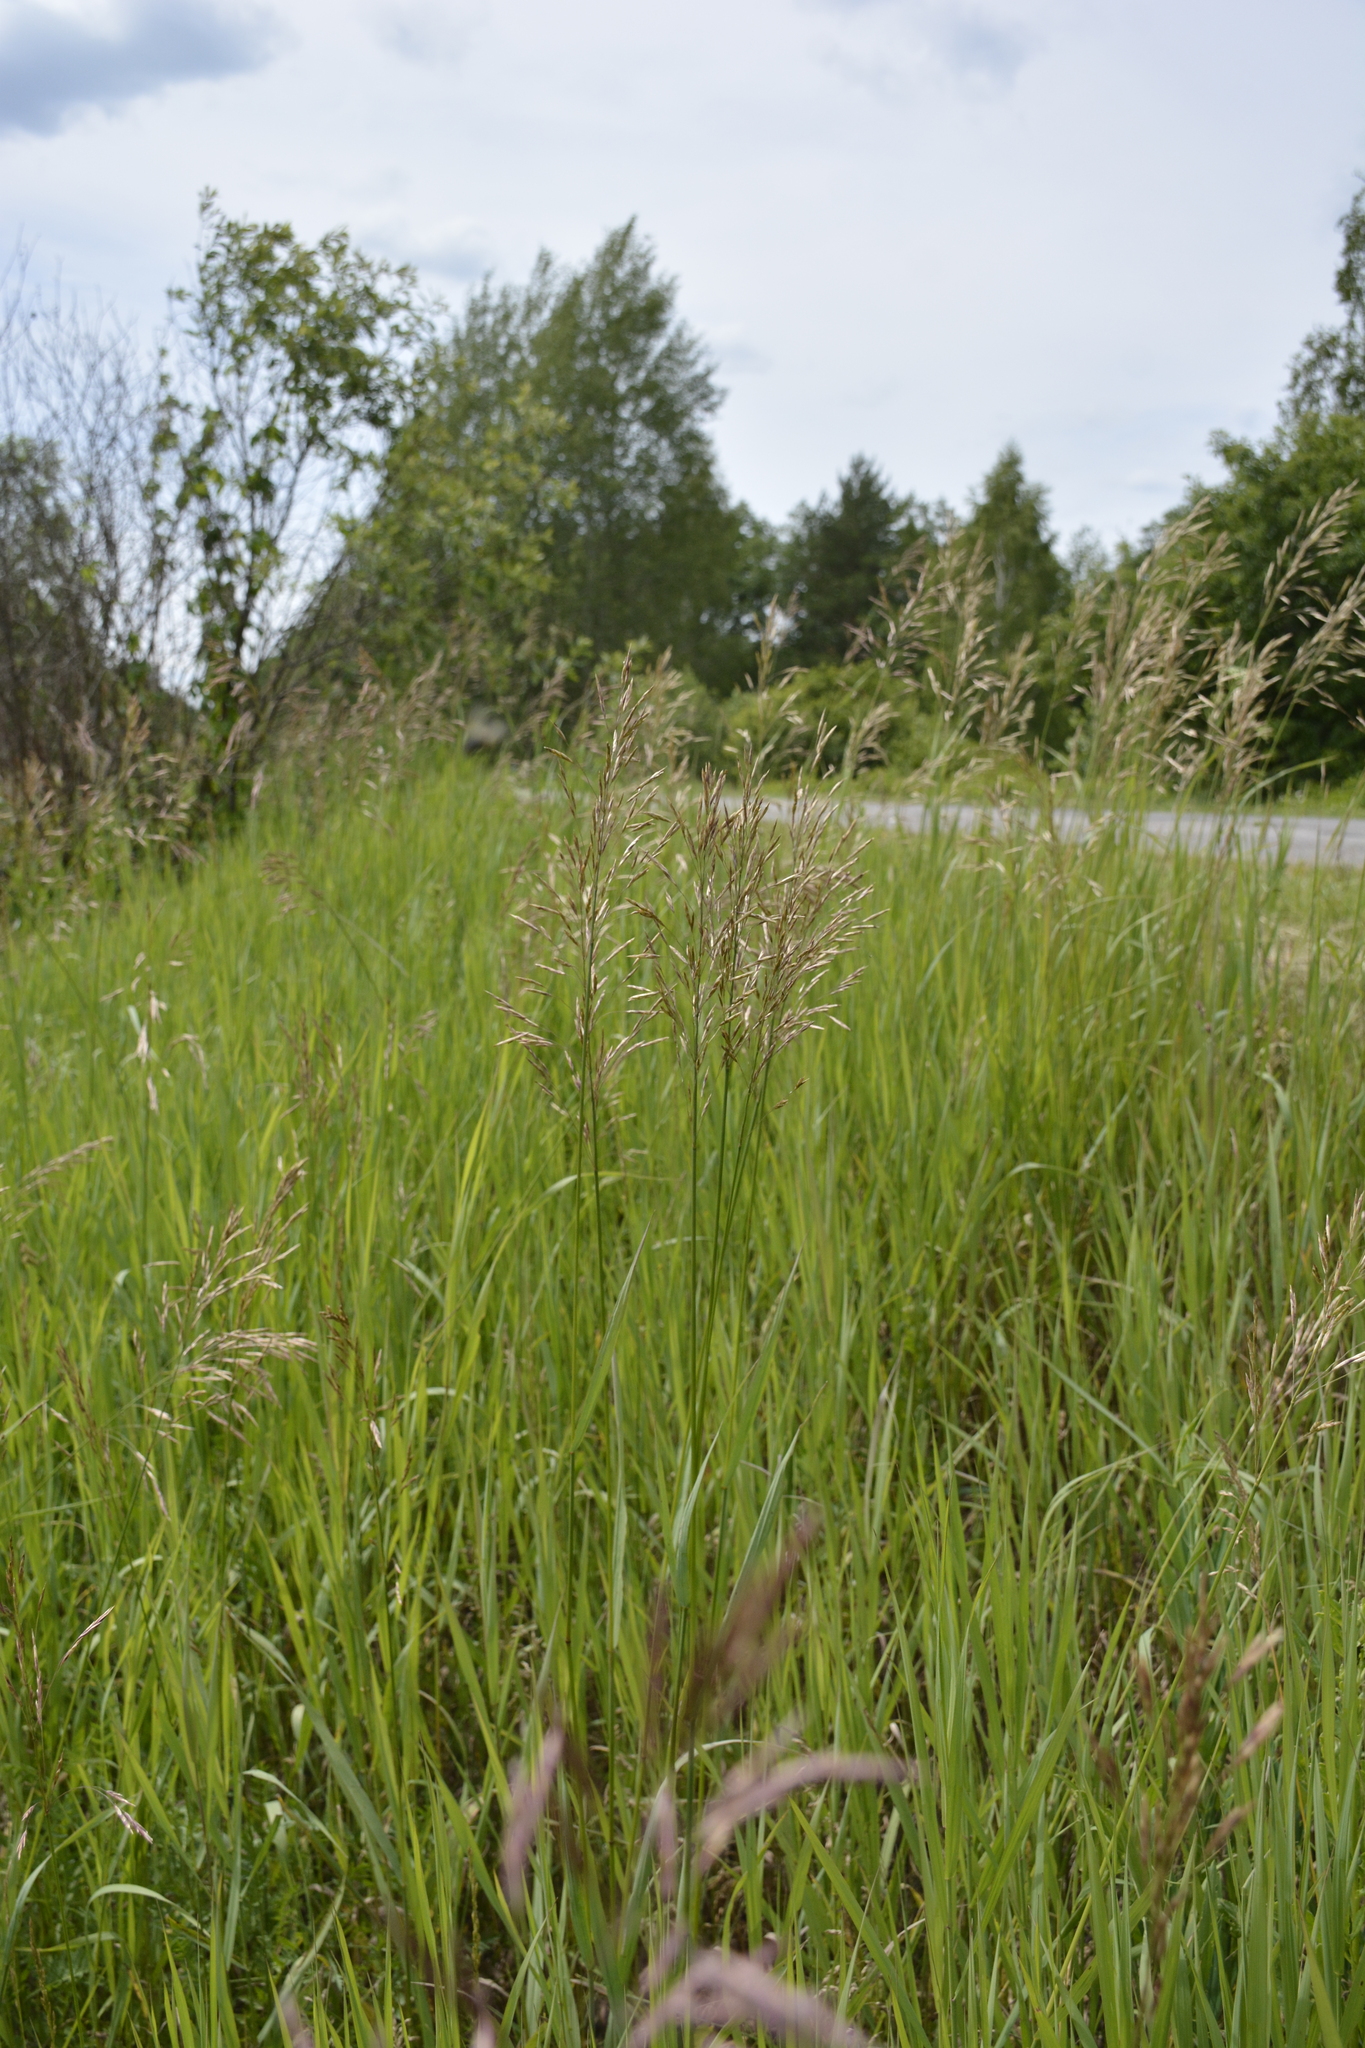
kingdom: Plantae
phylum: Tracheophyta
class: Liliopsida
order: Poales
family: Poaceae
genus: Bromus
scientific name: Bromus inermis
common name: Smooth brome
